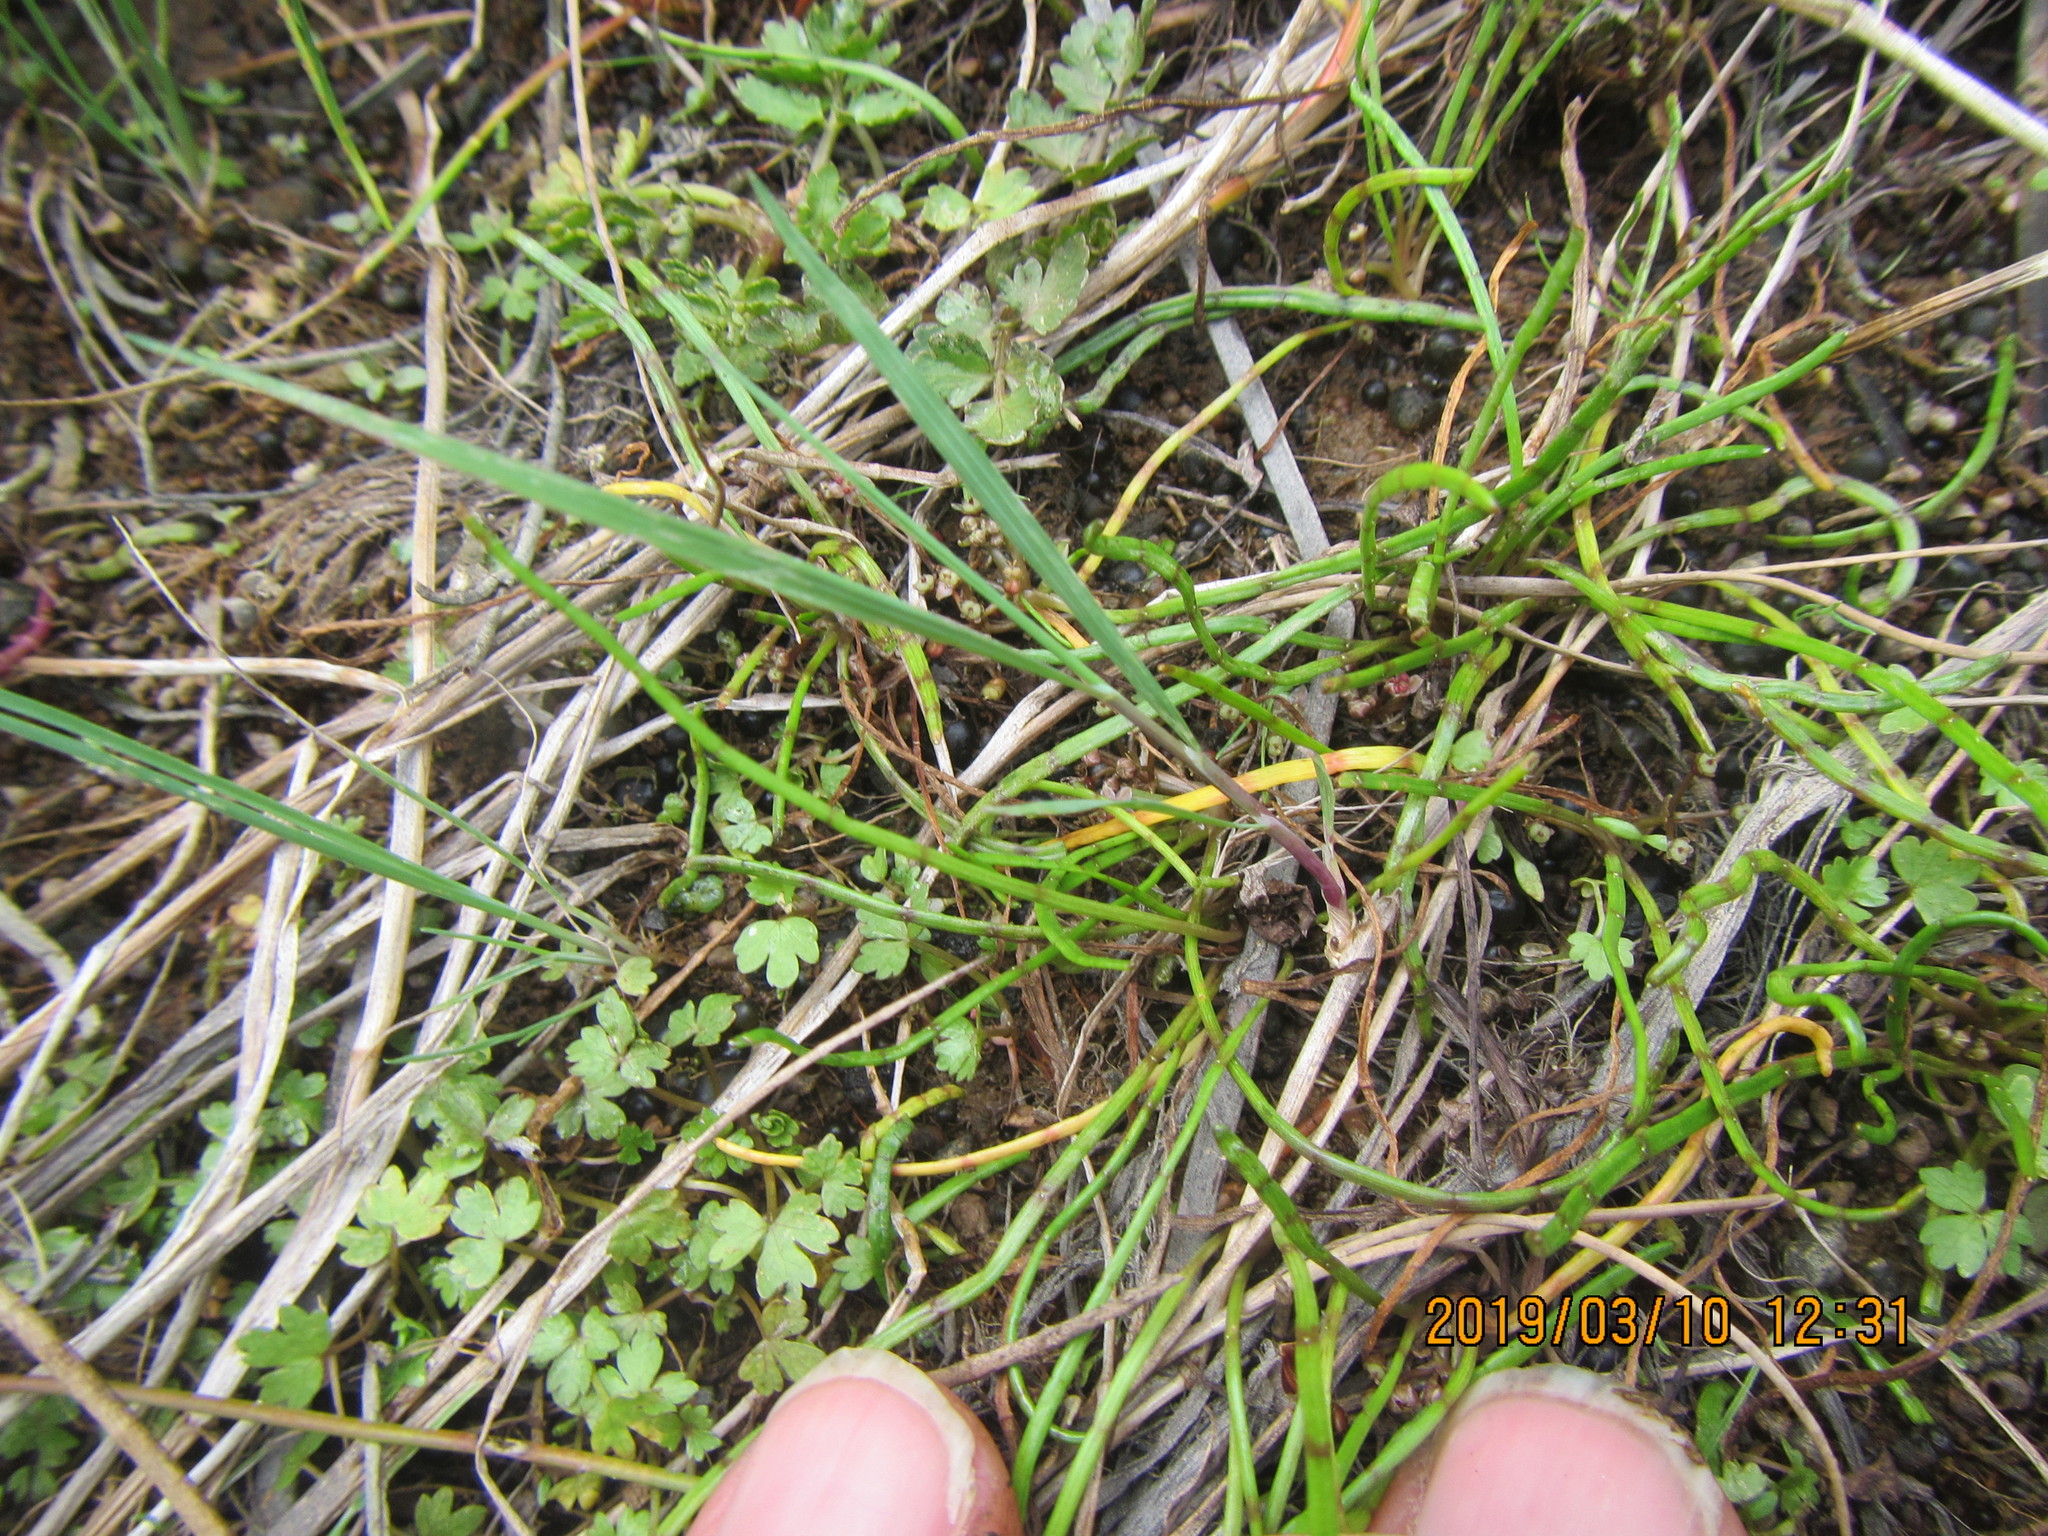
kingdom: Plantae
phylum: Tracheophyta
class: Magnoliopsida
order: Apiales
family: Apiaceae
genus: Lilaeopsis
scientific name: Lilaeopsis novae-zelandiae
